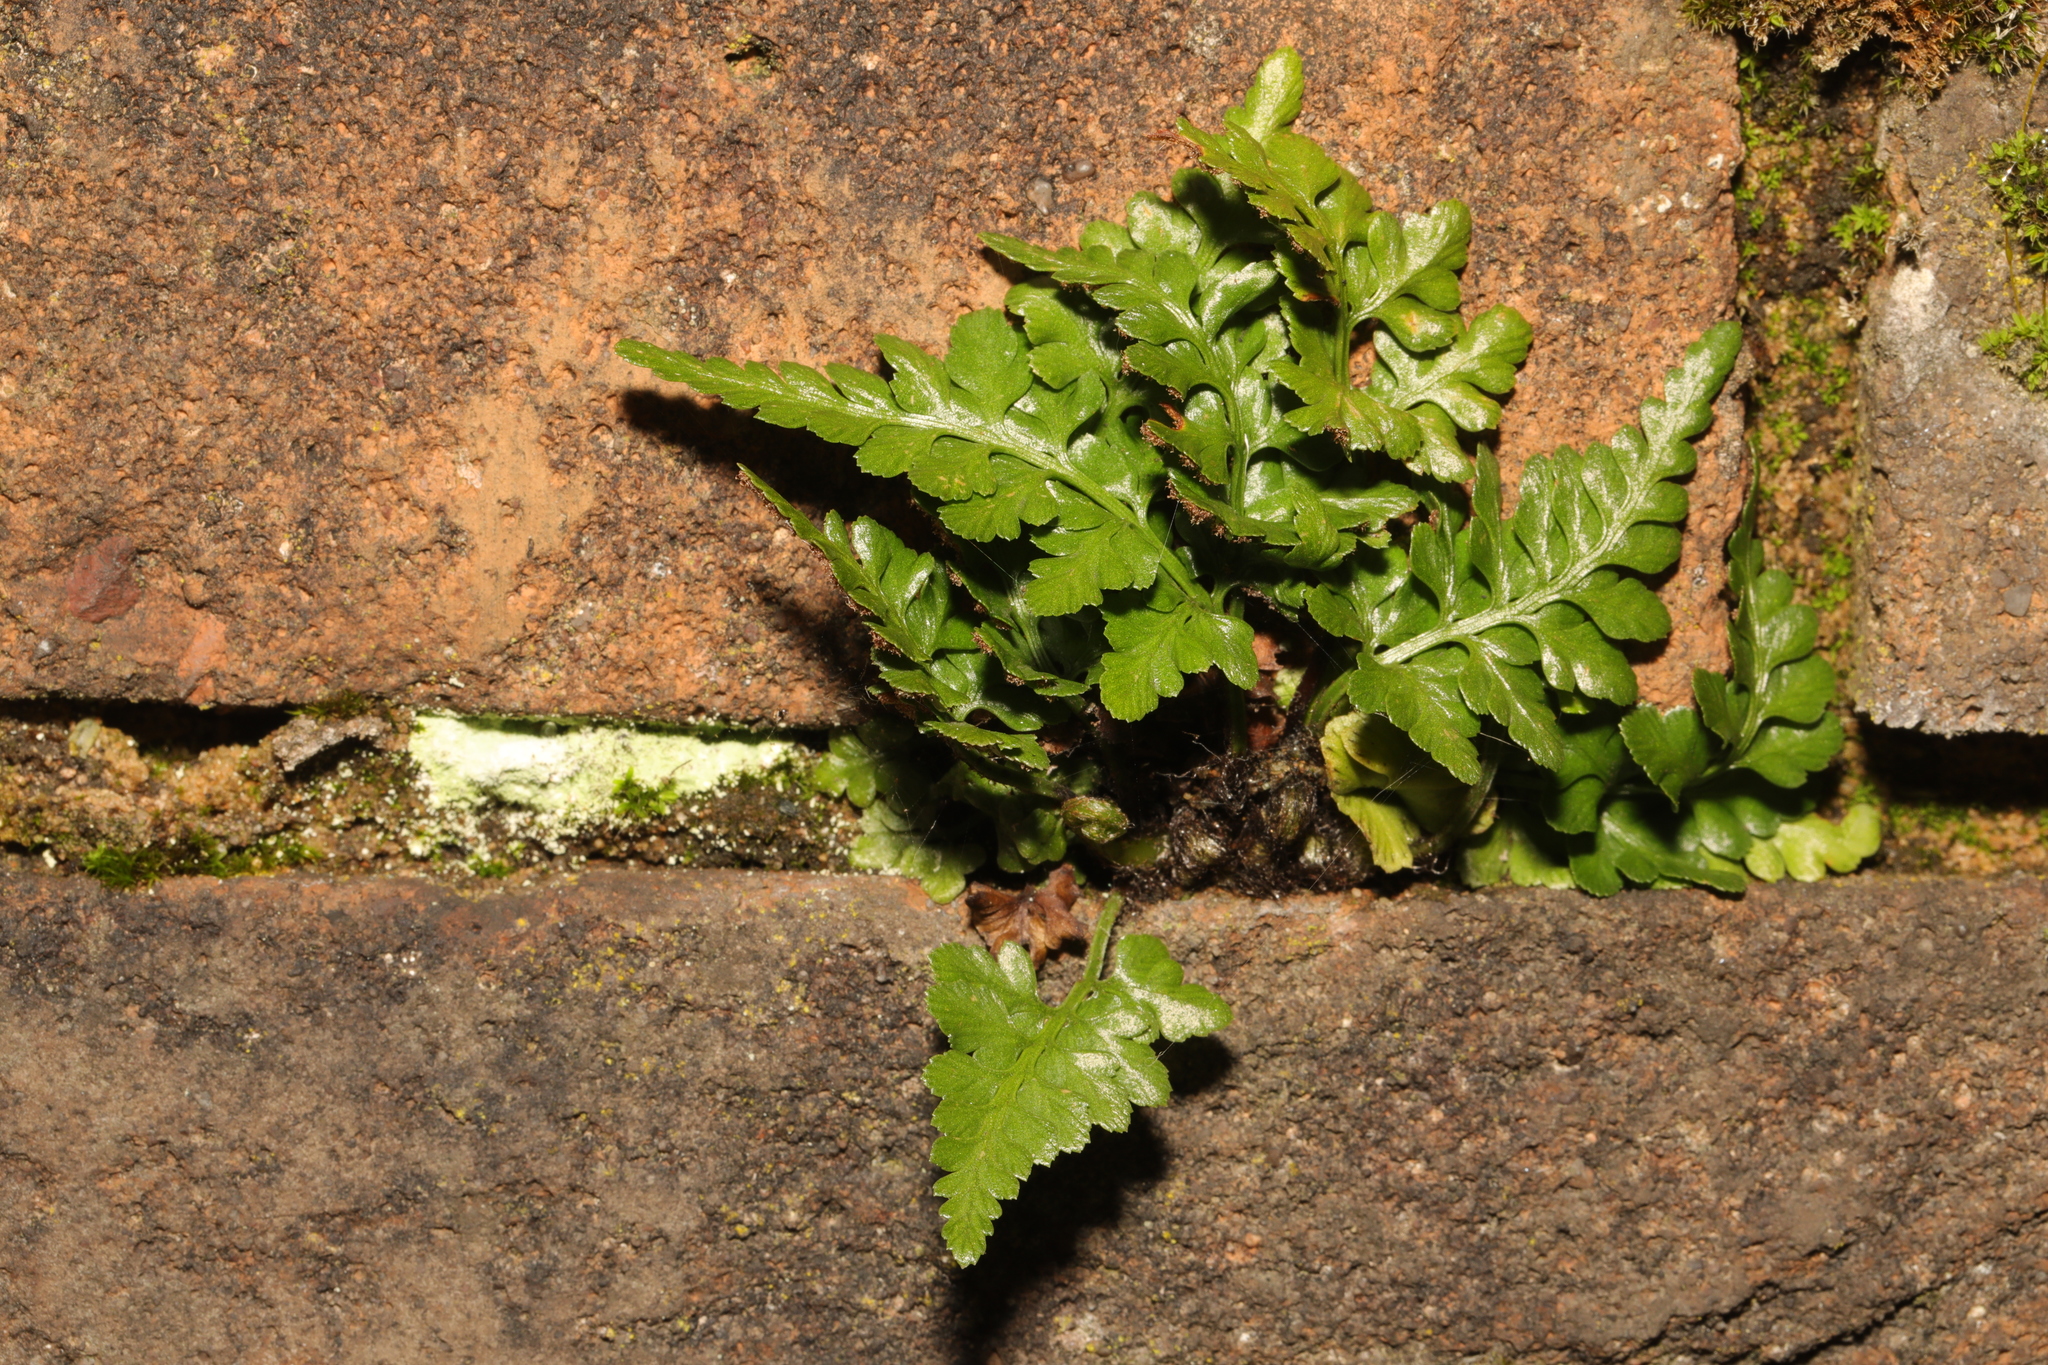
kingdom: Plantae
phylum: Tracheophyta
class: Polypodiopsida
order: Polypodiales
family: Aspleniaceae
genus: Asplenium
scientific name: Asplenium adiantum-nigrum
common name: Black spleenwort
